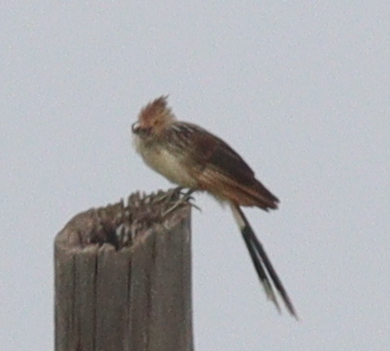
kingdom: Animalia
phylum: Chordata
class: Aves
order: Cuculiformes
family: Cuculidae
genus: Guira
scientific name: Guira guira
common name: Guira cuckoo
